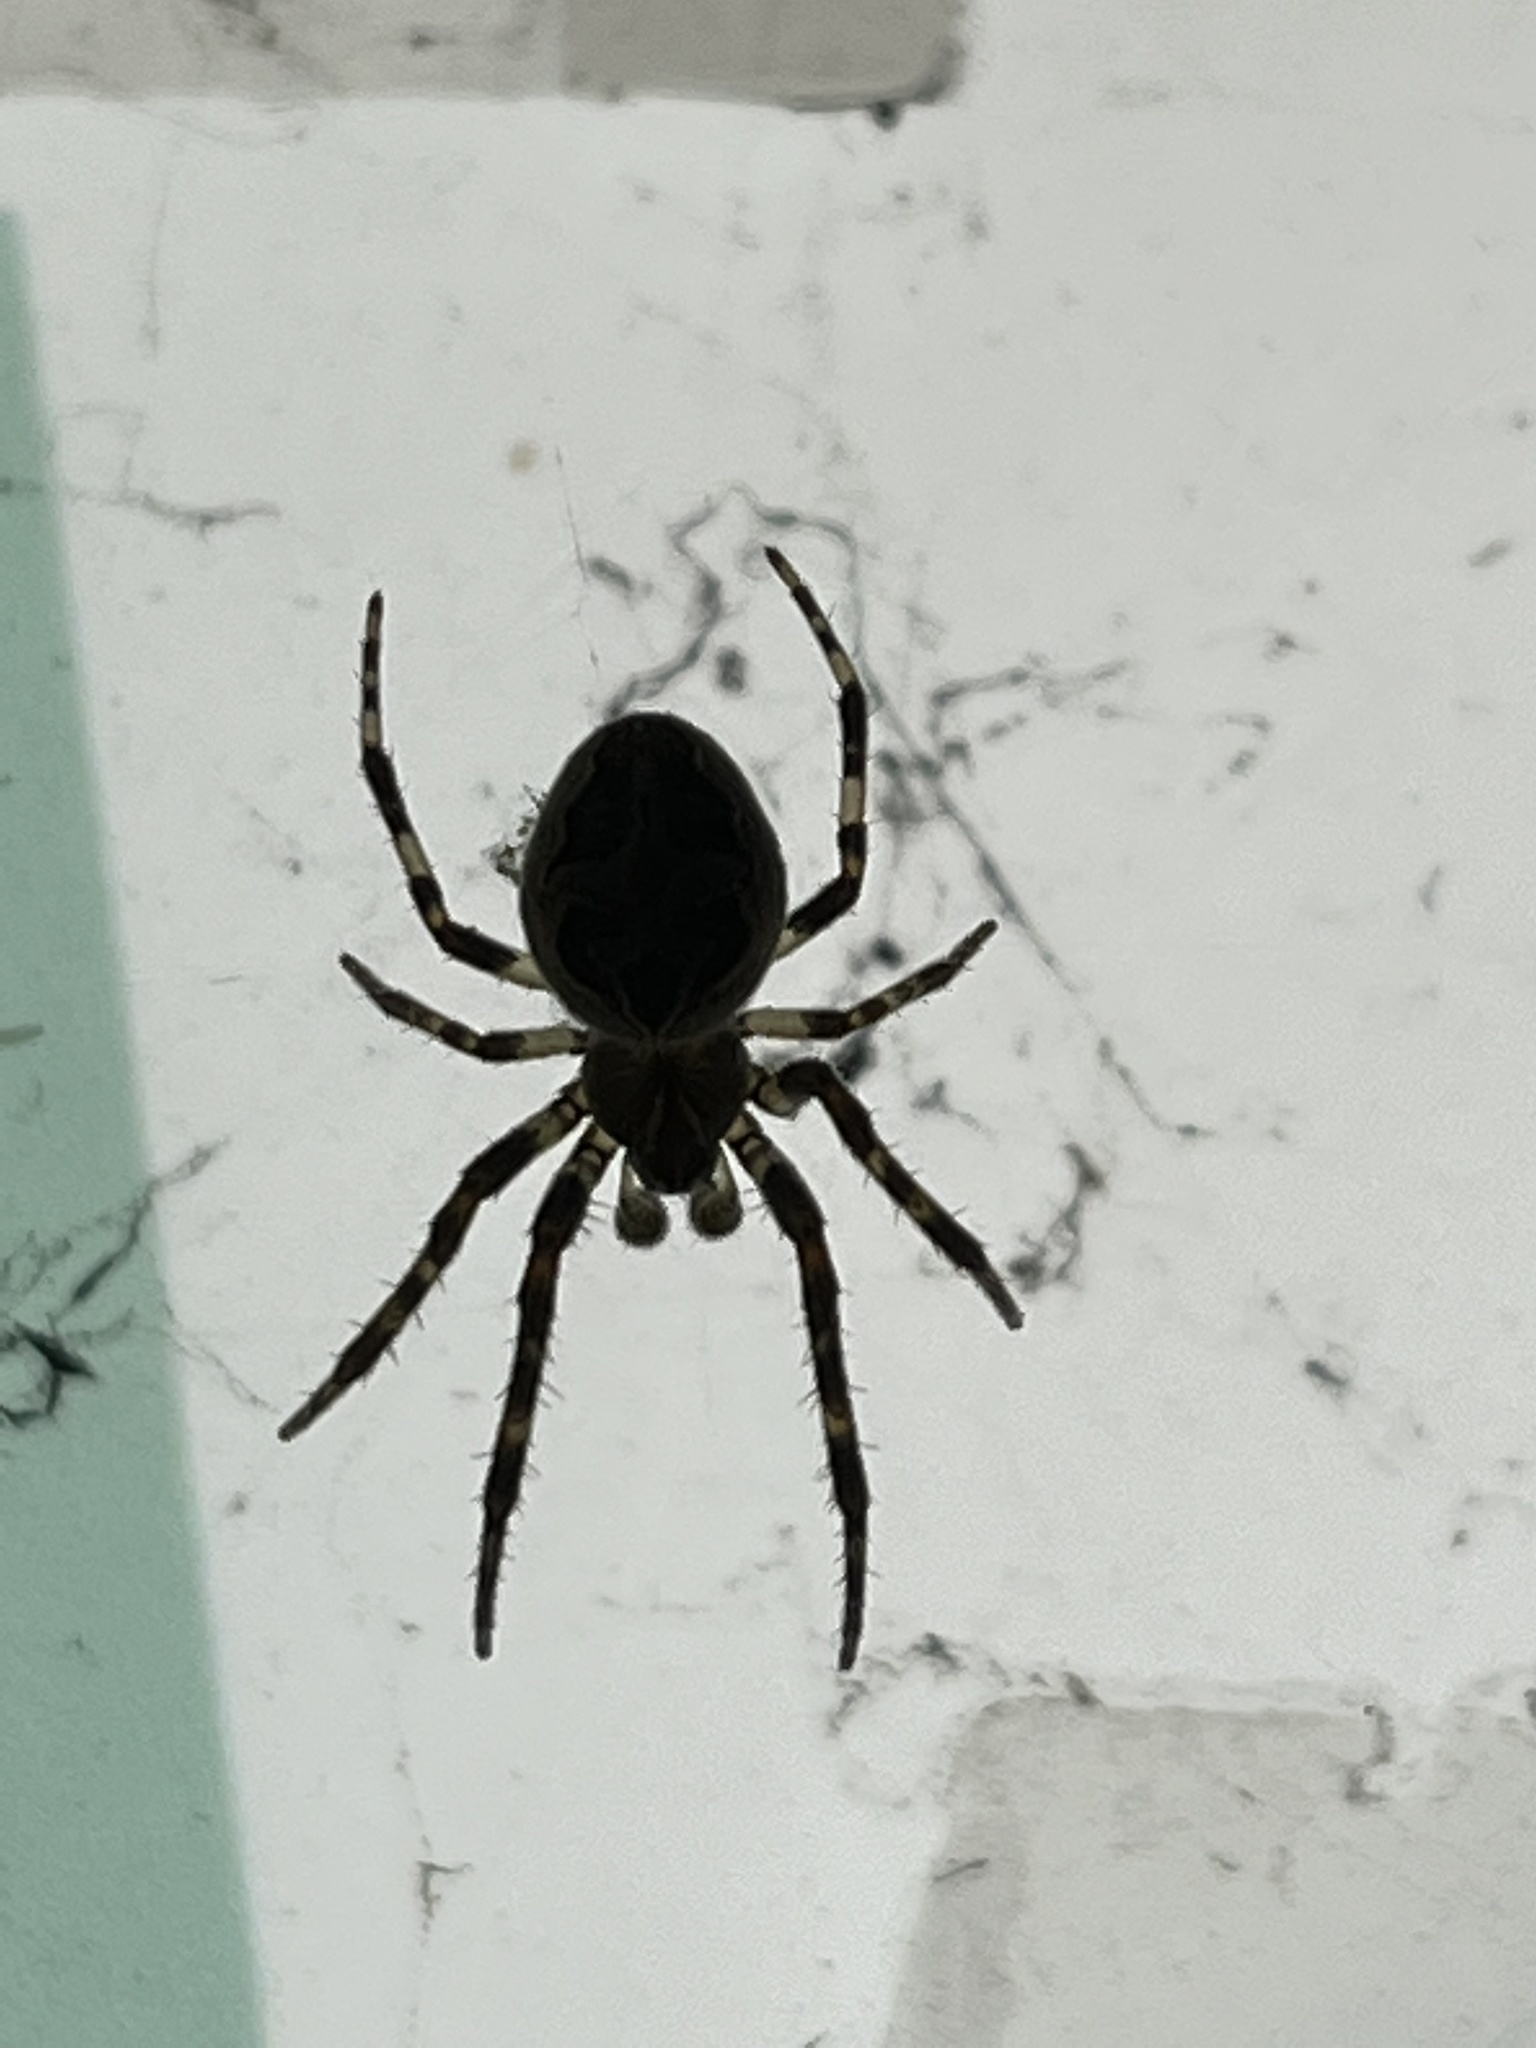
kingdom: Animalia
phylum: Arthropoda
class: Arachnida
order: Araneae
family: Araneidae
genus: Larinioides
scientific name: Larinioides sclopetarius
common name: Bridge orbweaver
